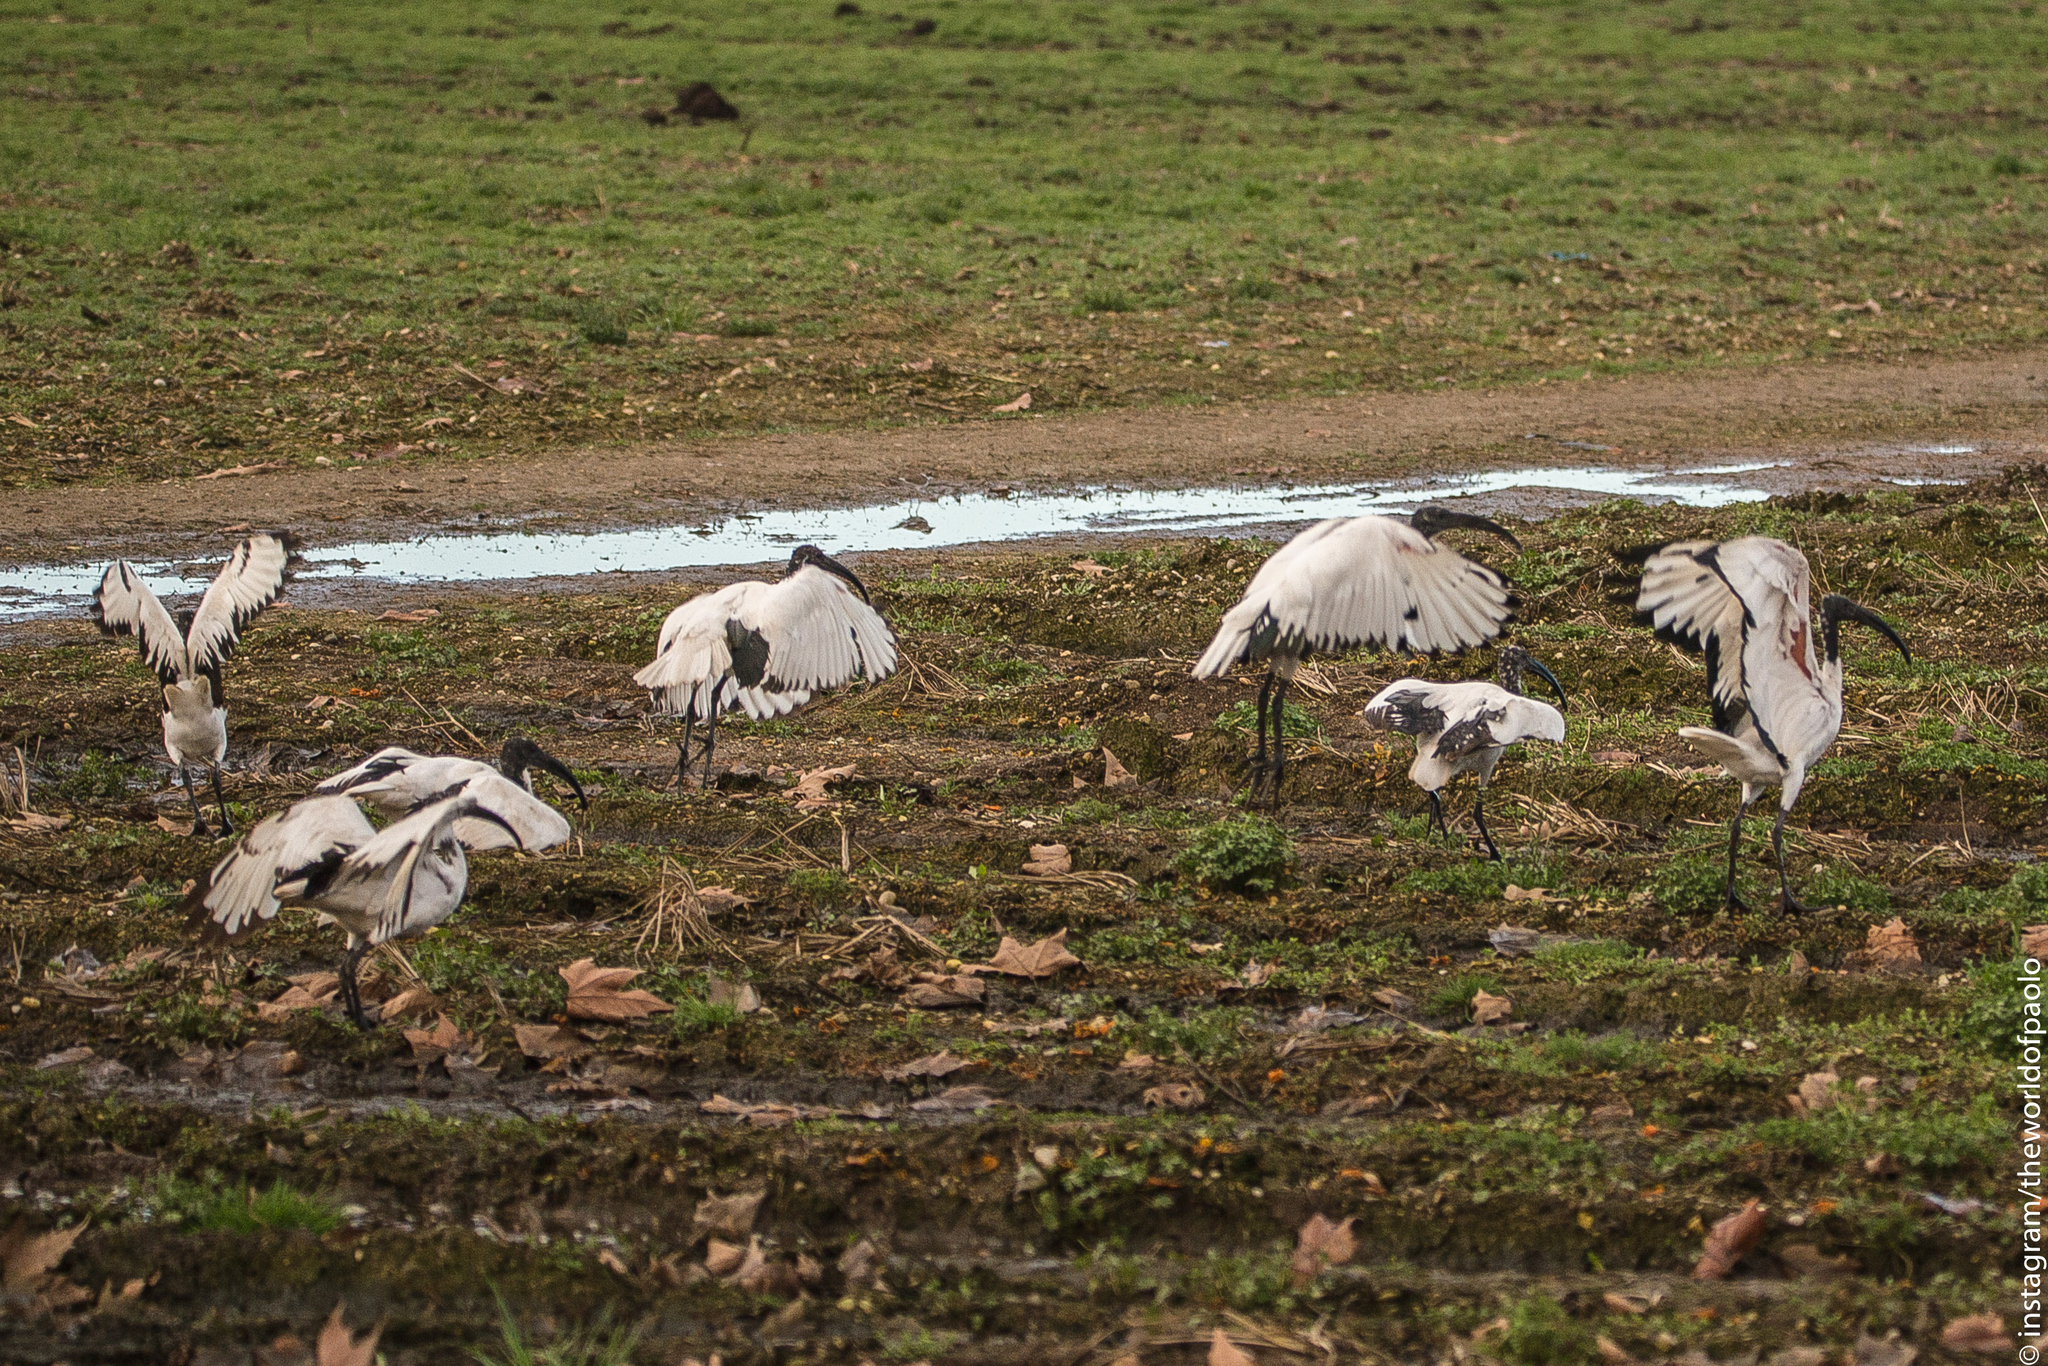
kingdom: Animalia
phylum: Chordata
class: Aves
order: Pelecaniformes
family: Threskiornithidae
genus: Threskiornis
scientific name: Threskiornis aethiopicus
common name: Sacred ibis
